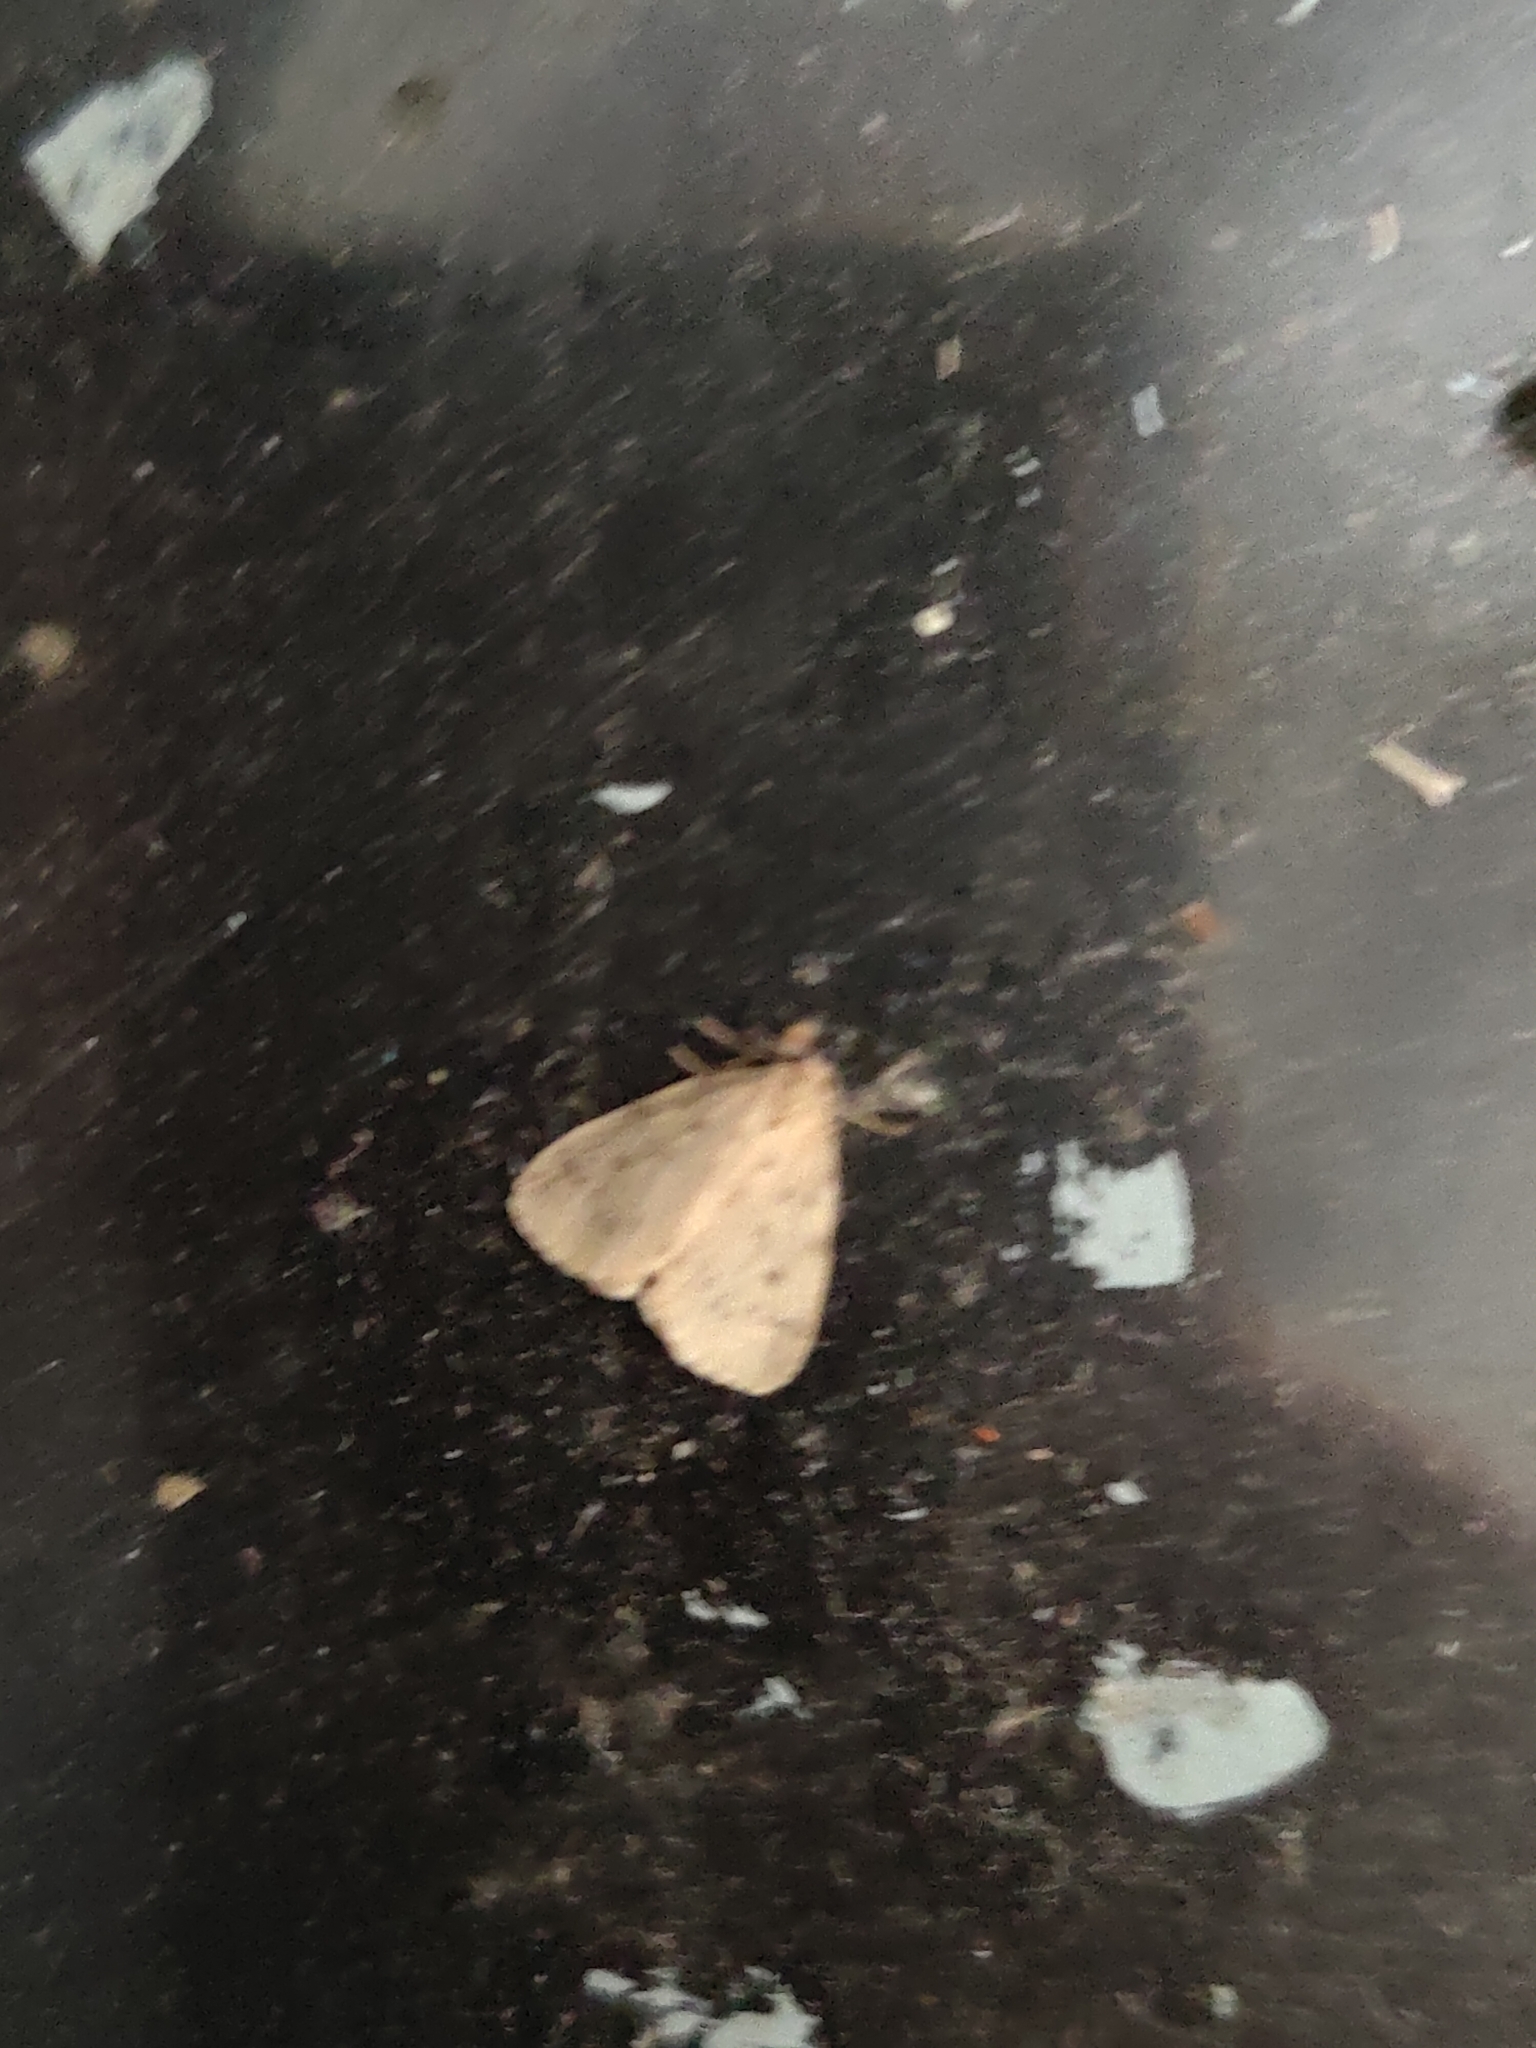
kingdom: Animalia
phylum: Arthropoda
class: Insecta
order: Lepidoptera
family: Erebidae
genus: Thumatha
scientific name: Thumatha senex
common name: Round-winged muslin
